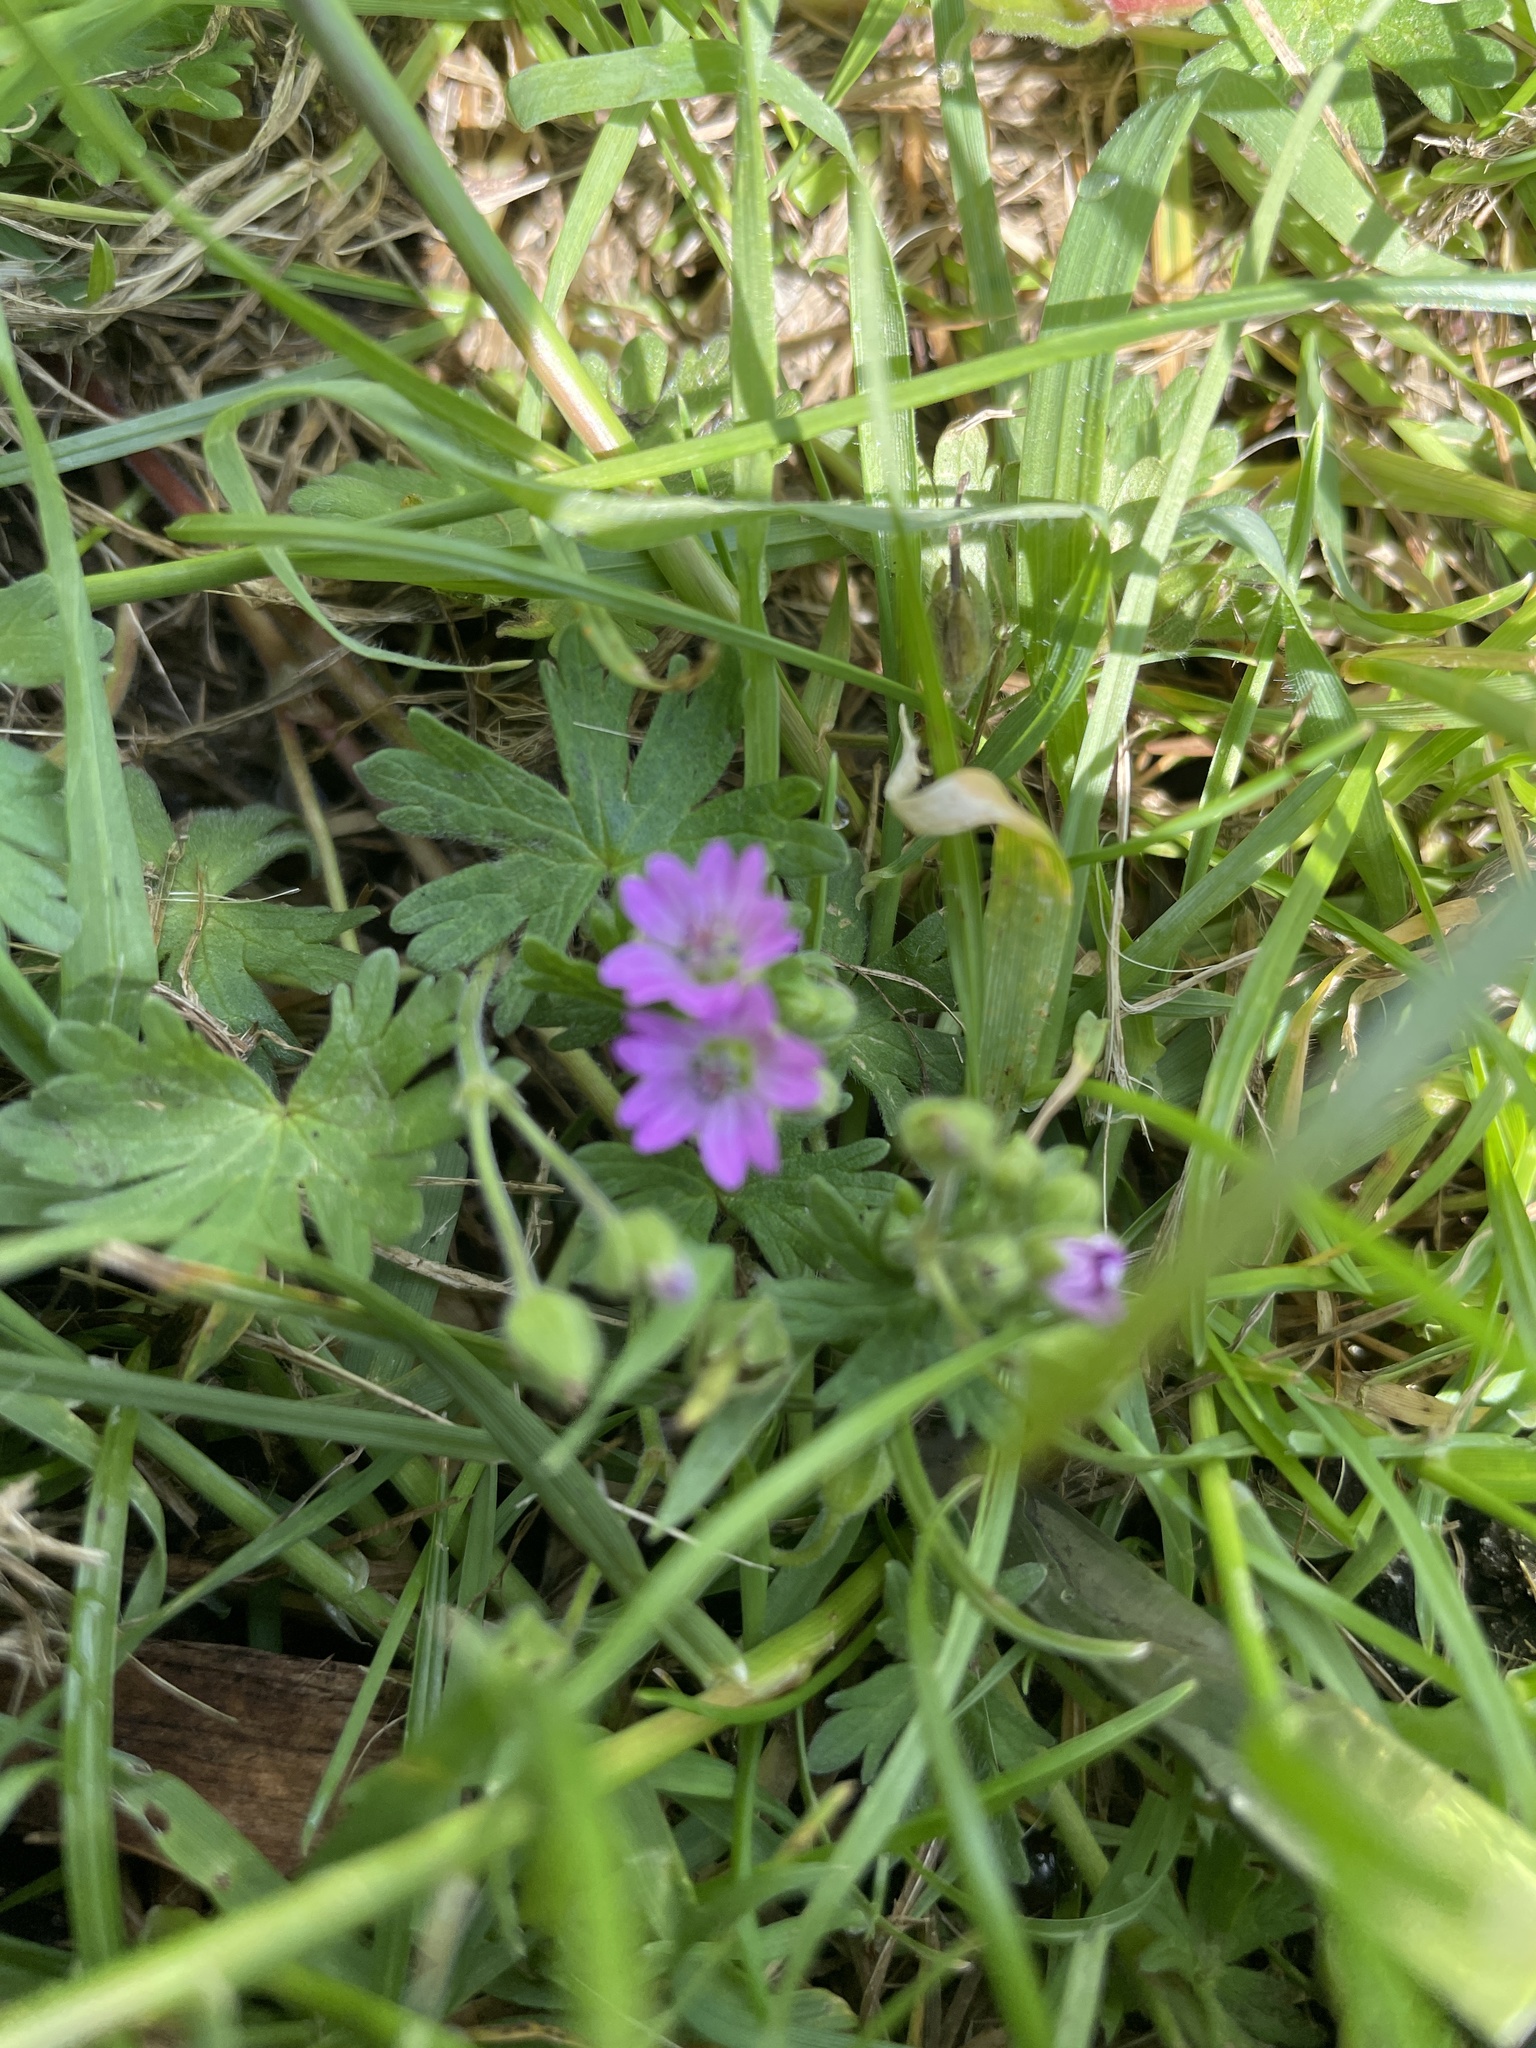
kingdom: Plantae
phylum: Tracheophyta
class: Magnoliopsida
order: Geraniales
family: Geraniaceae
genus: Geranium
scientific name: Geranium molle
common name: Dove's-foot crane's-bill
